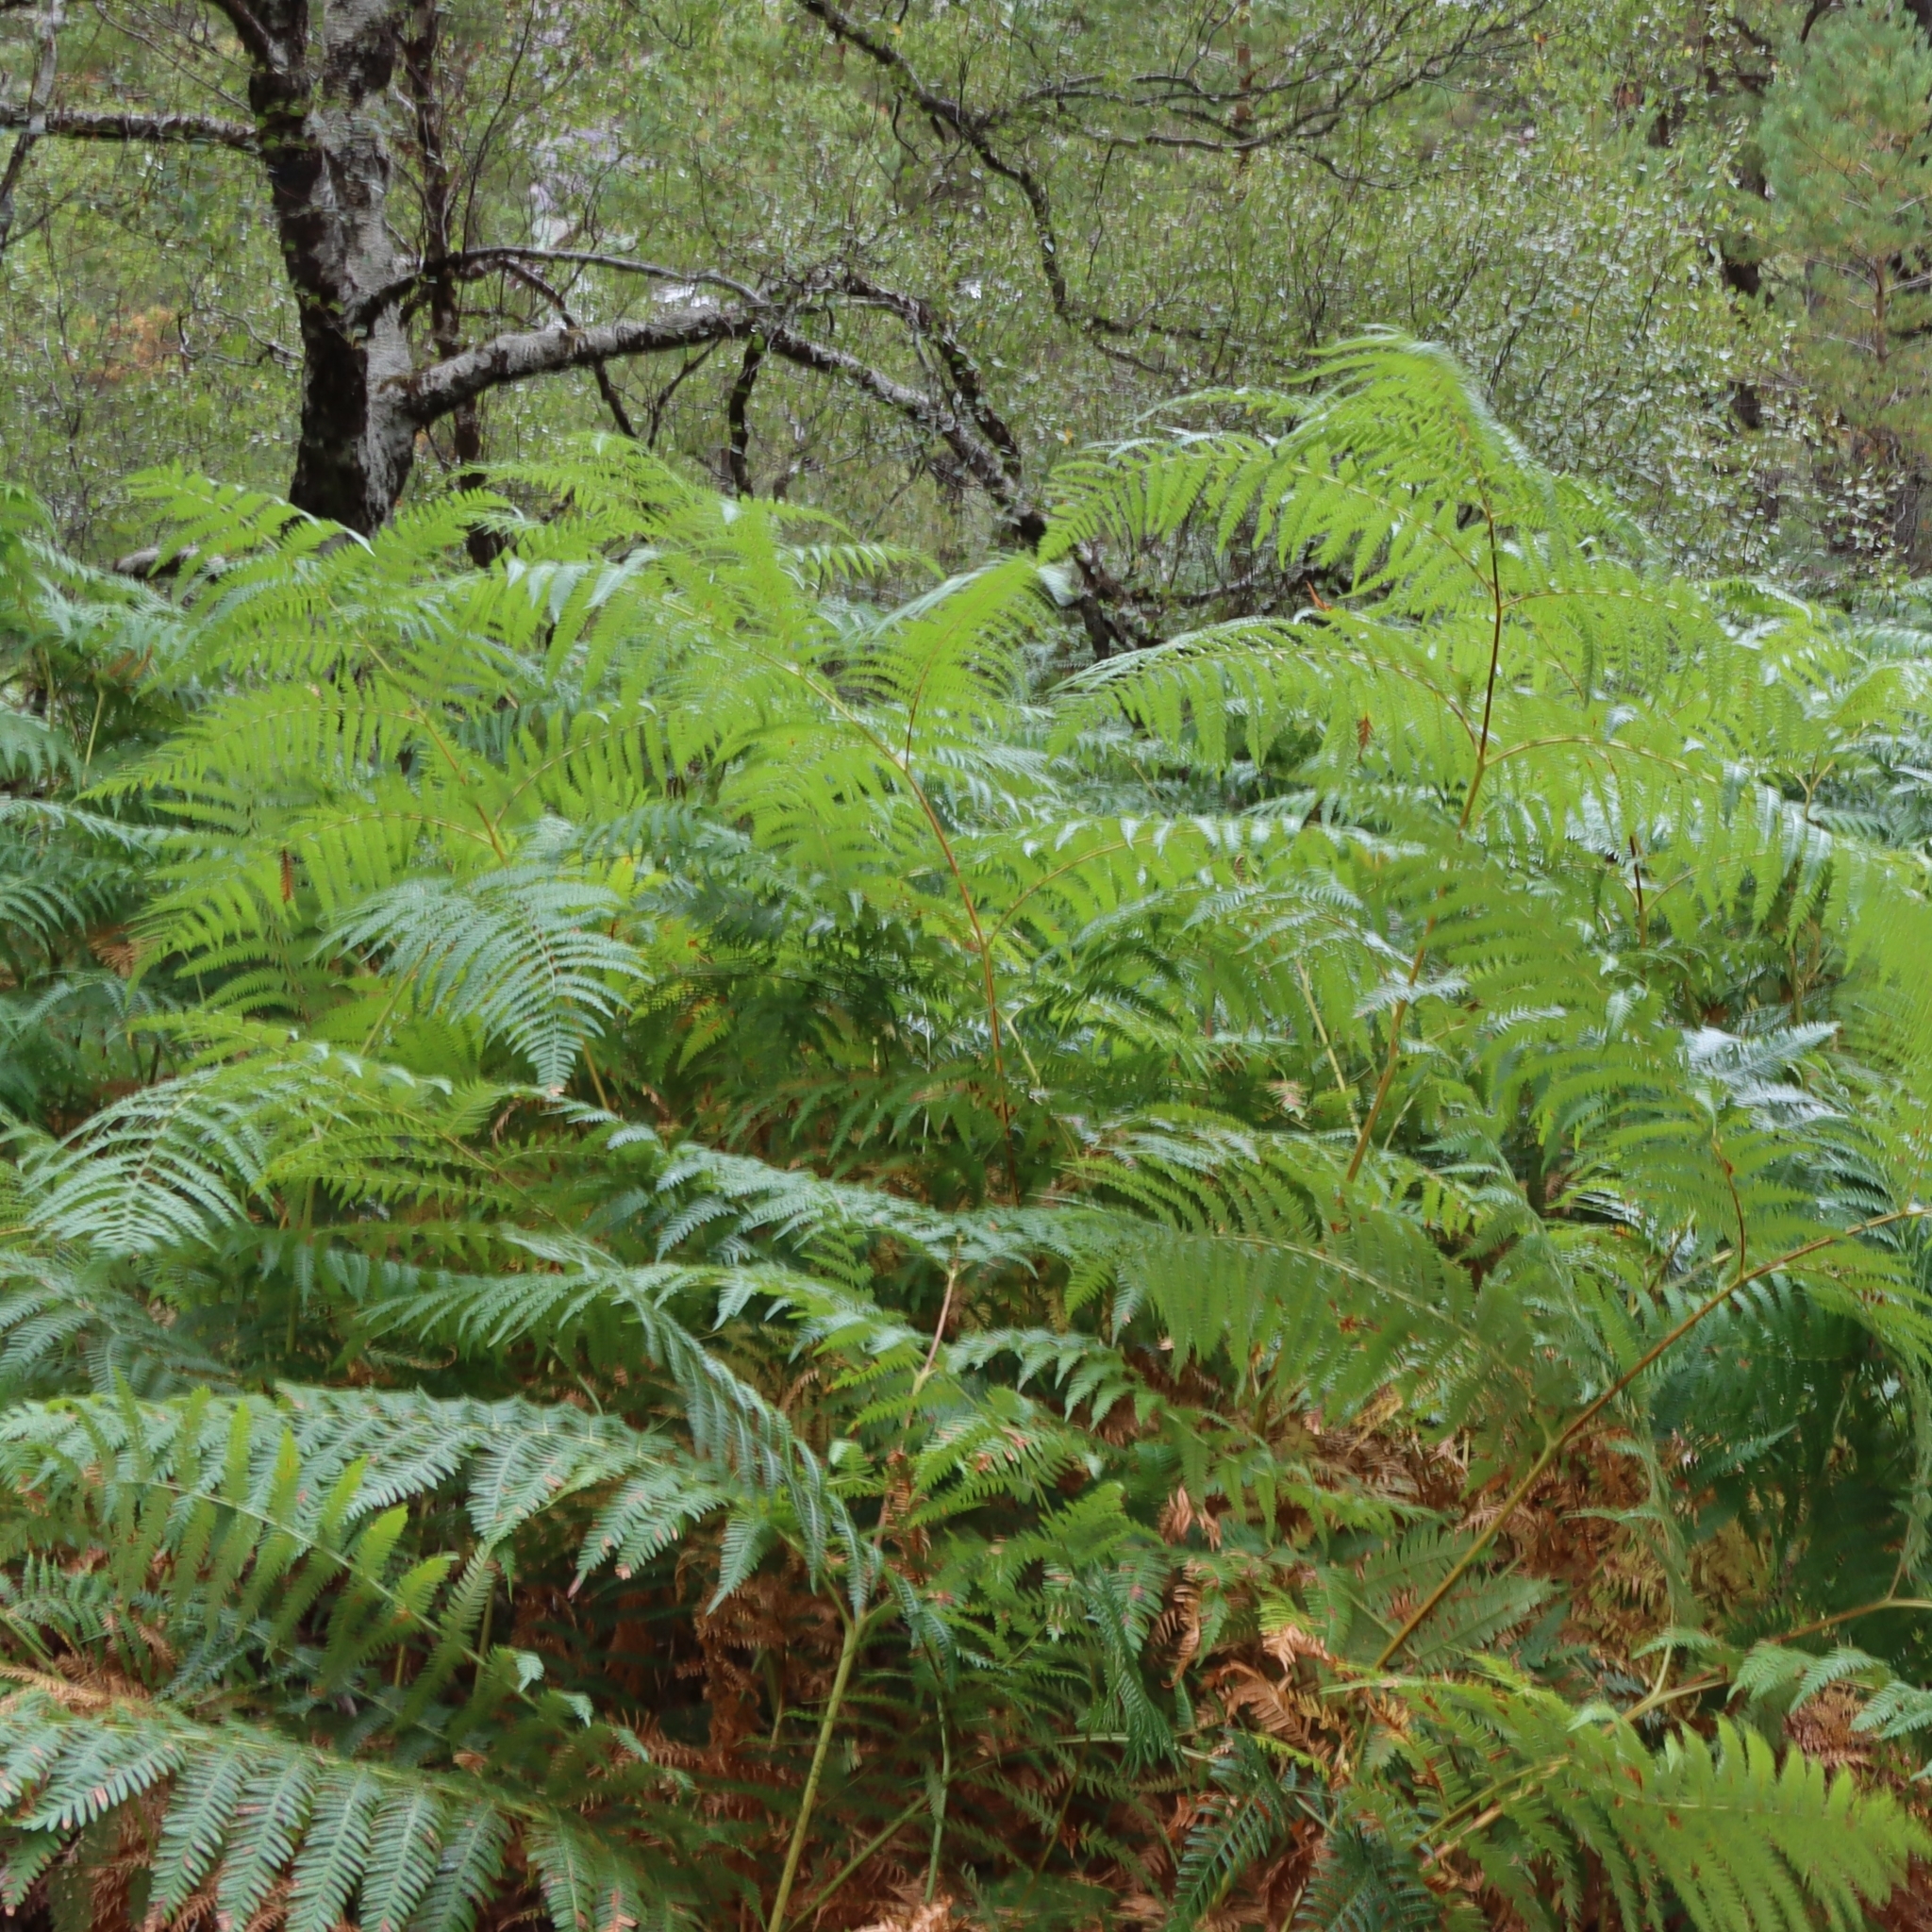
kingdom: Plantae
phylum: Tracheophyta
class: Polypodiopsida
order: Polypodiales
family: Dennstaedtiaceae
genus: Pteridium
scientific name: Pteridium aquilinum
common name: Bracken
